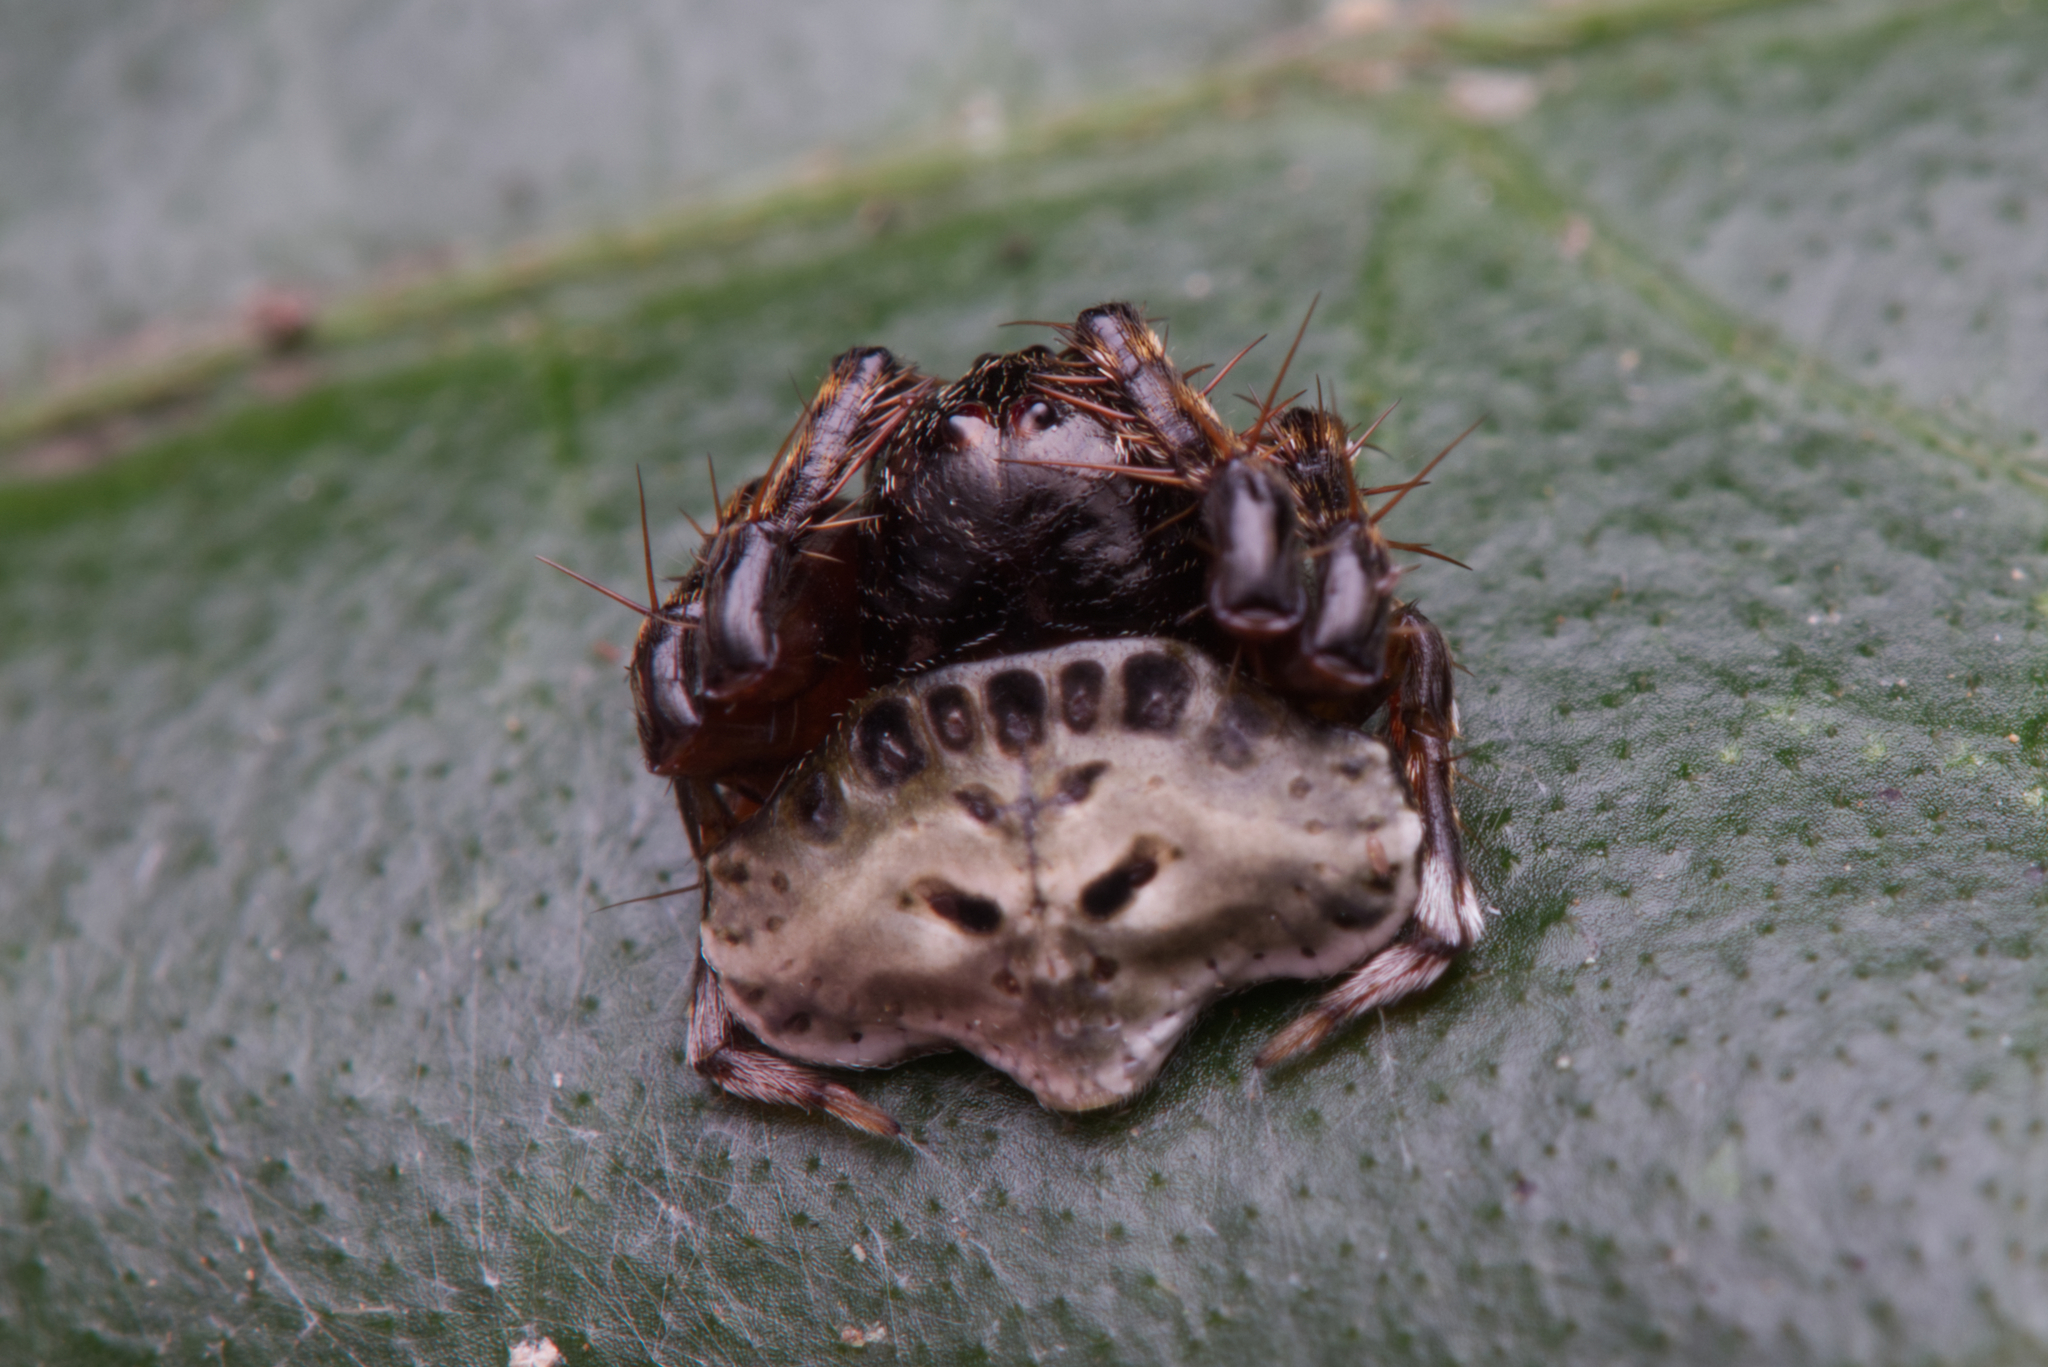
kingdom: Animalia
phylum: Arthropoda
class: Arachnida
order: Araneae
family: Arkyidae
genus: Arkys
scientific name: Arkys speechleyi
